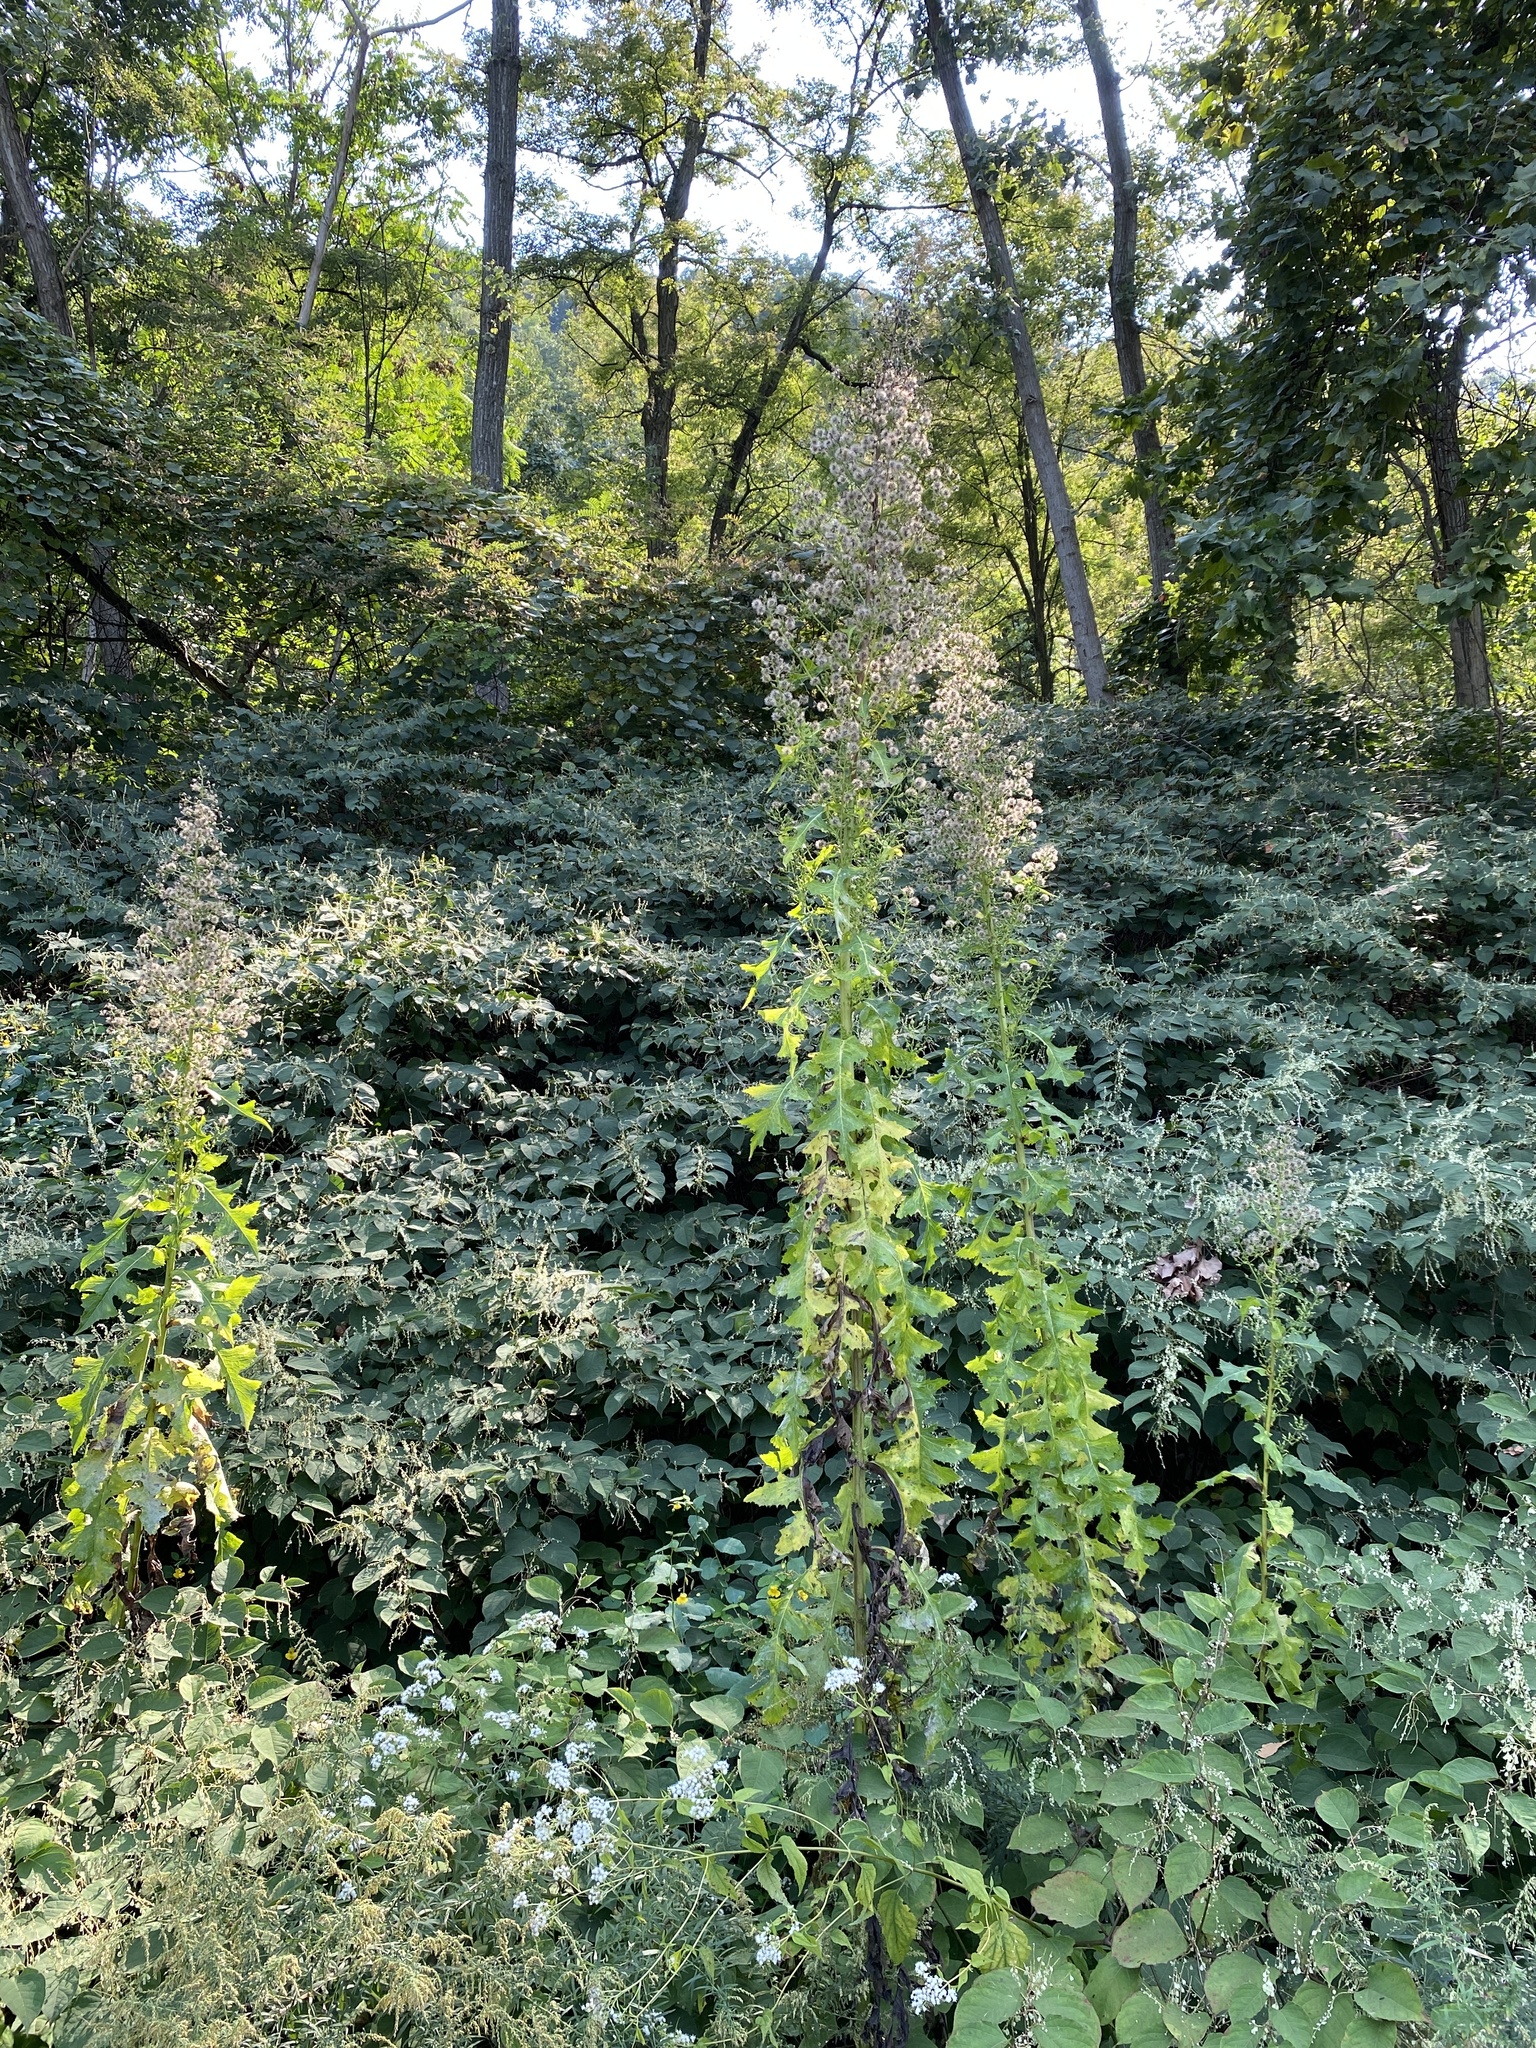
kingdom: Plantae
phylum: Tracheophyta
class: Magnoliopsida
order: Asterales
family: Asteraceae
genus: Lactuca
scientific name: Lactuca biennis
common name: Blue wood lettuce
